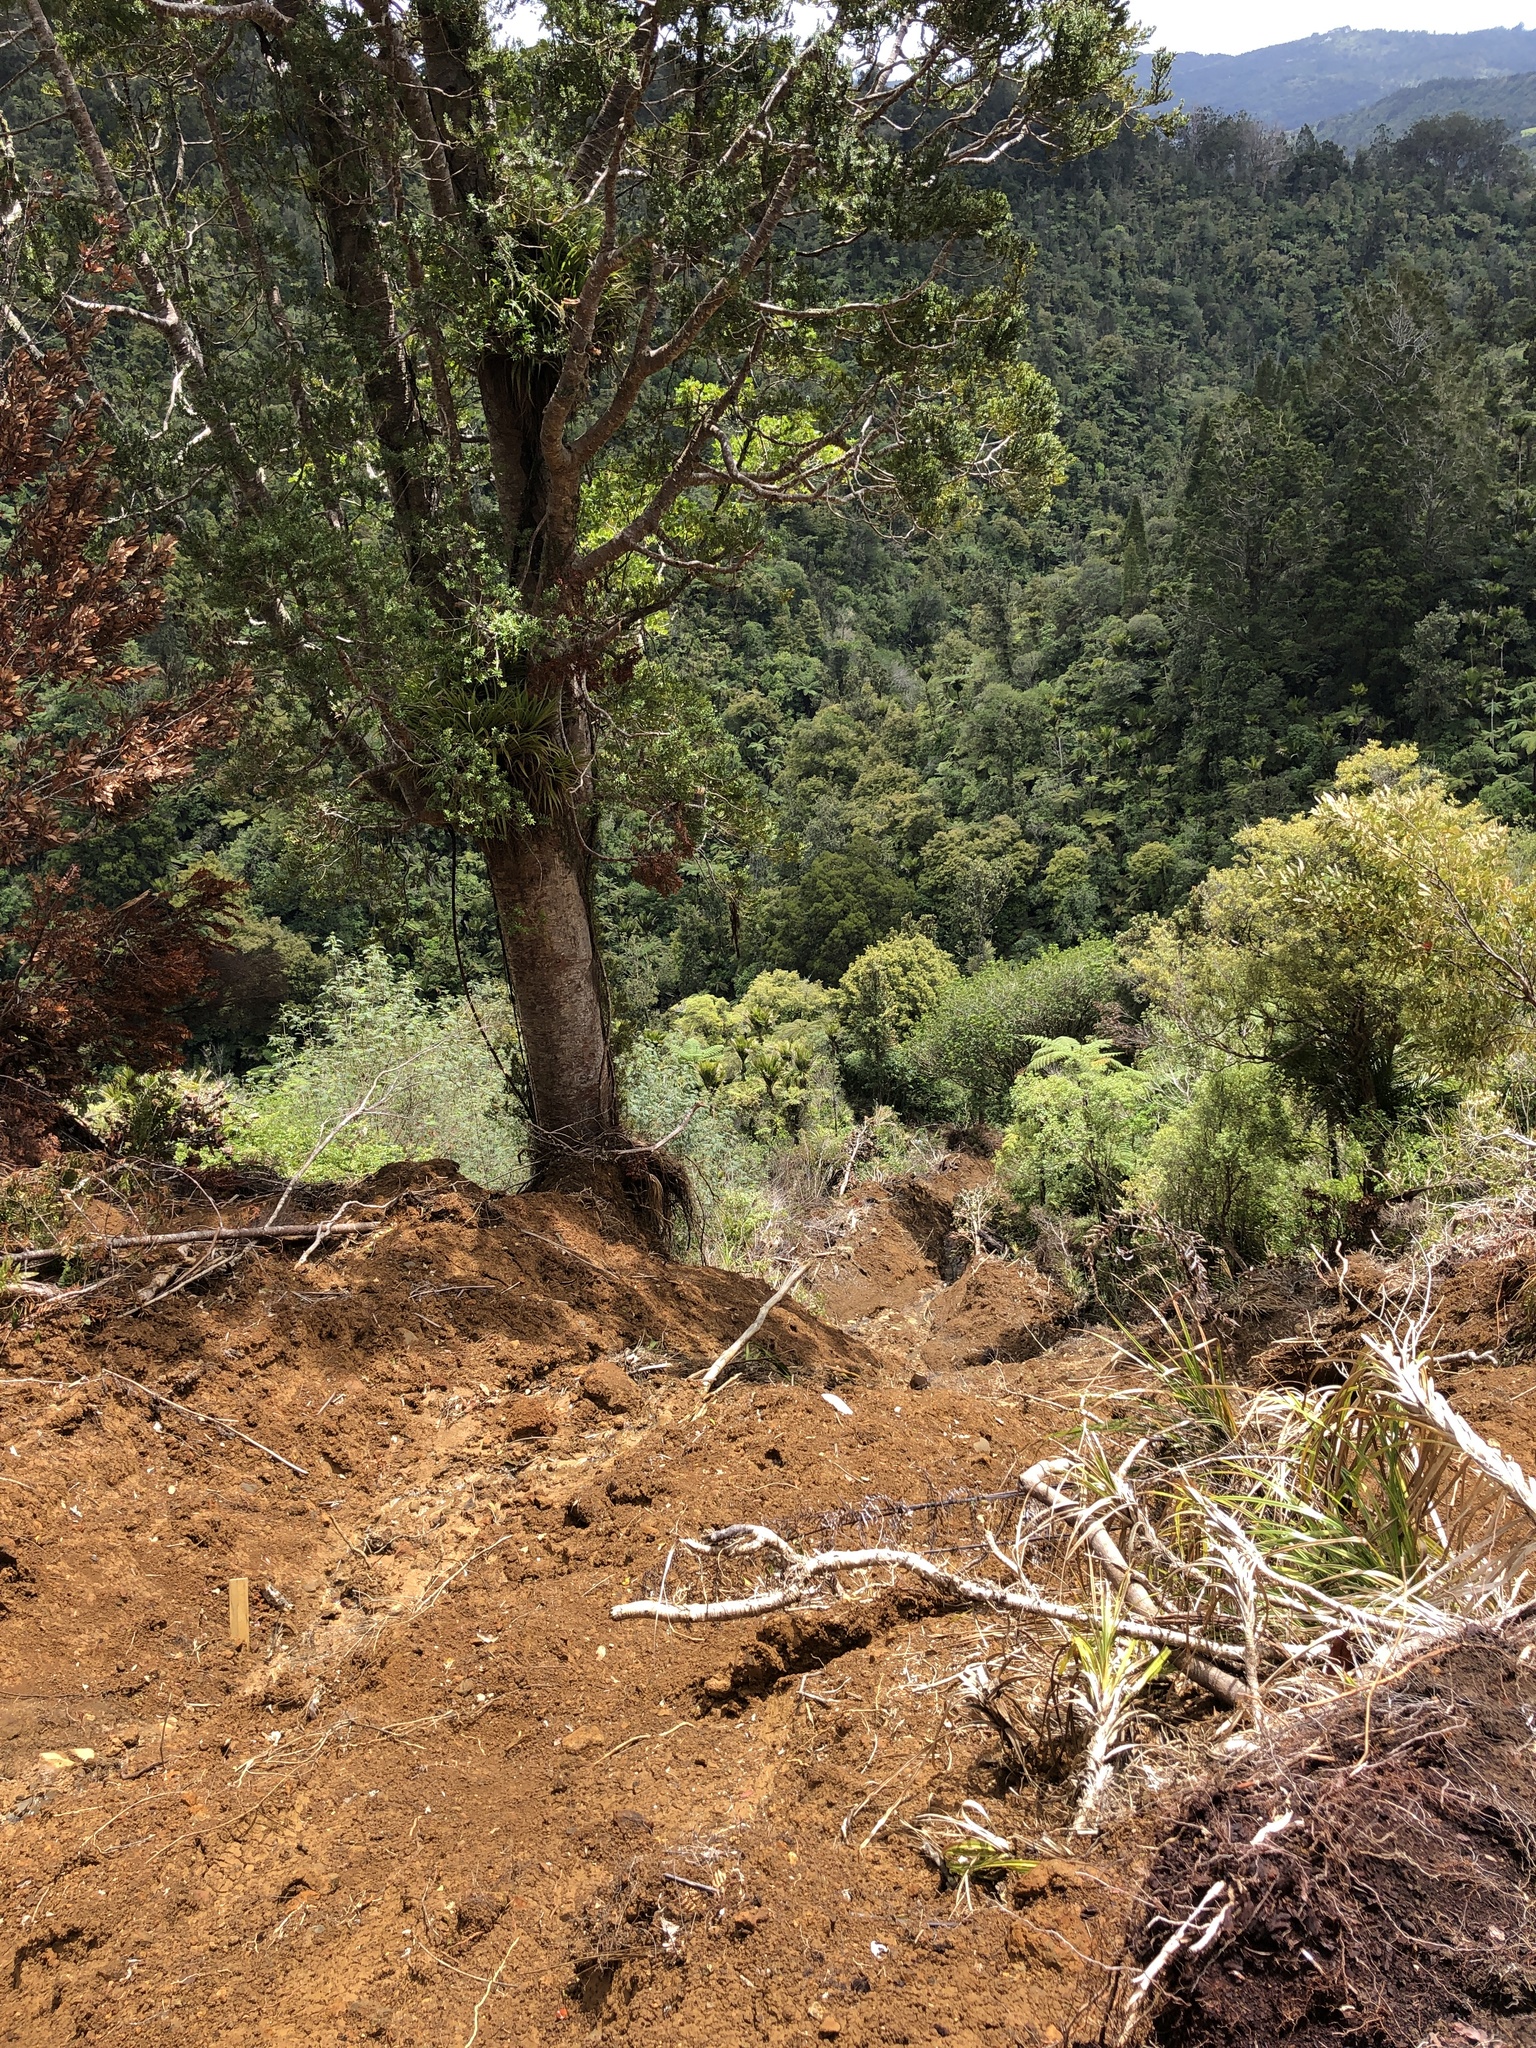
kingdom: Plantae
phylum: Tracheophyta
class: Pinopsida
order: Pinales
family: Araucariaceae
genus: Agathis
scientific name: Agathis australis
